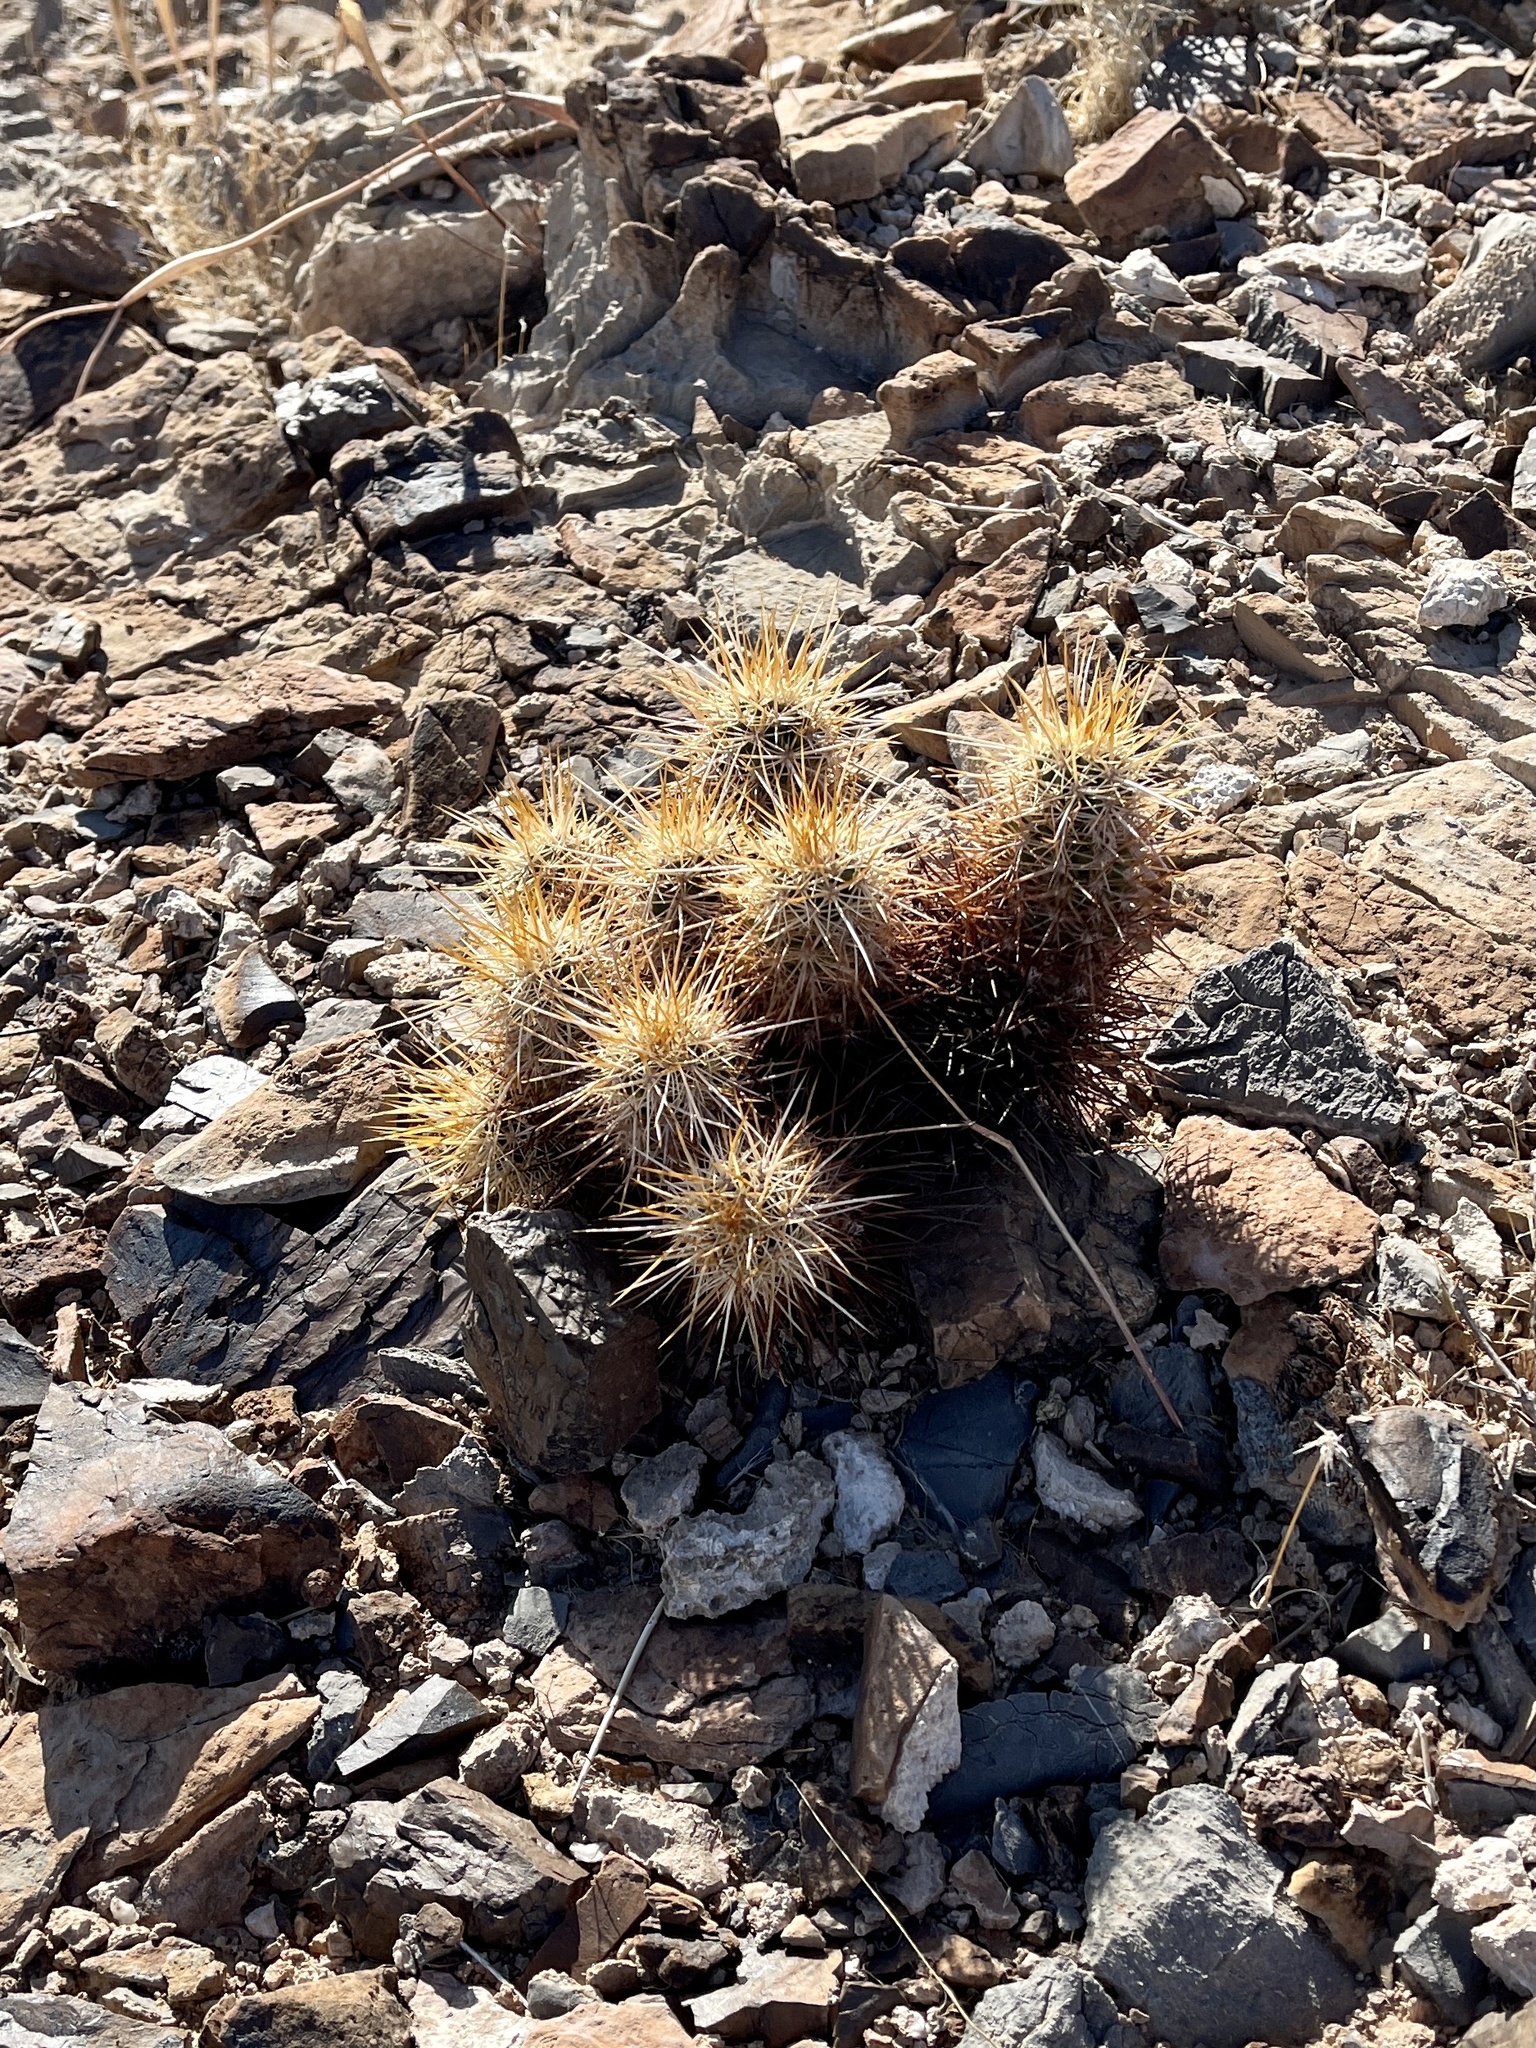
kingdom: Plantae
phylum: Tracheophyta
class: Magnoliopsida
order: Caryophyllales
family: Cactaceae
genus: Echinocereus
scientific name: Echinocereus engelmannii
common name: Engelmann's hedgehog cactus
